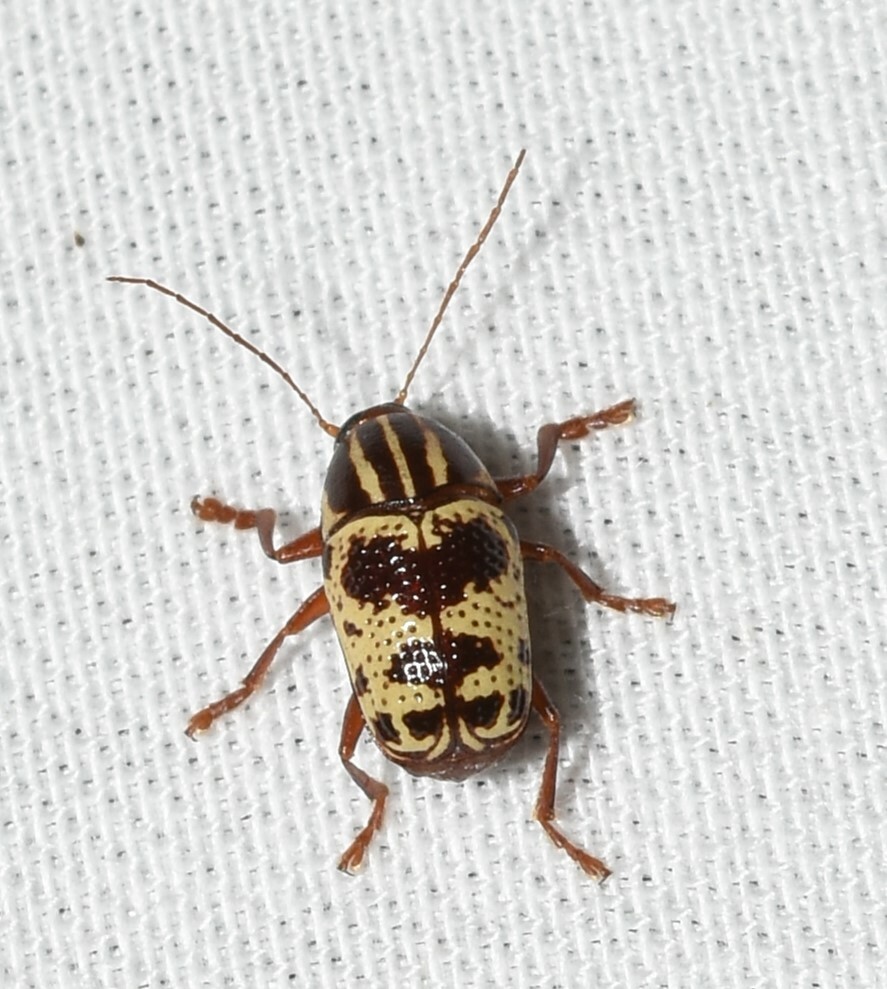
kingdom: Animalia
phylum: Arthropoda
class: Insecta
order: Coleoptera
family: Chrysomelidae
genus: Cryptocephalus
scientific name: Cryptocephalus leucomelas
